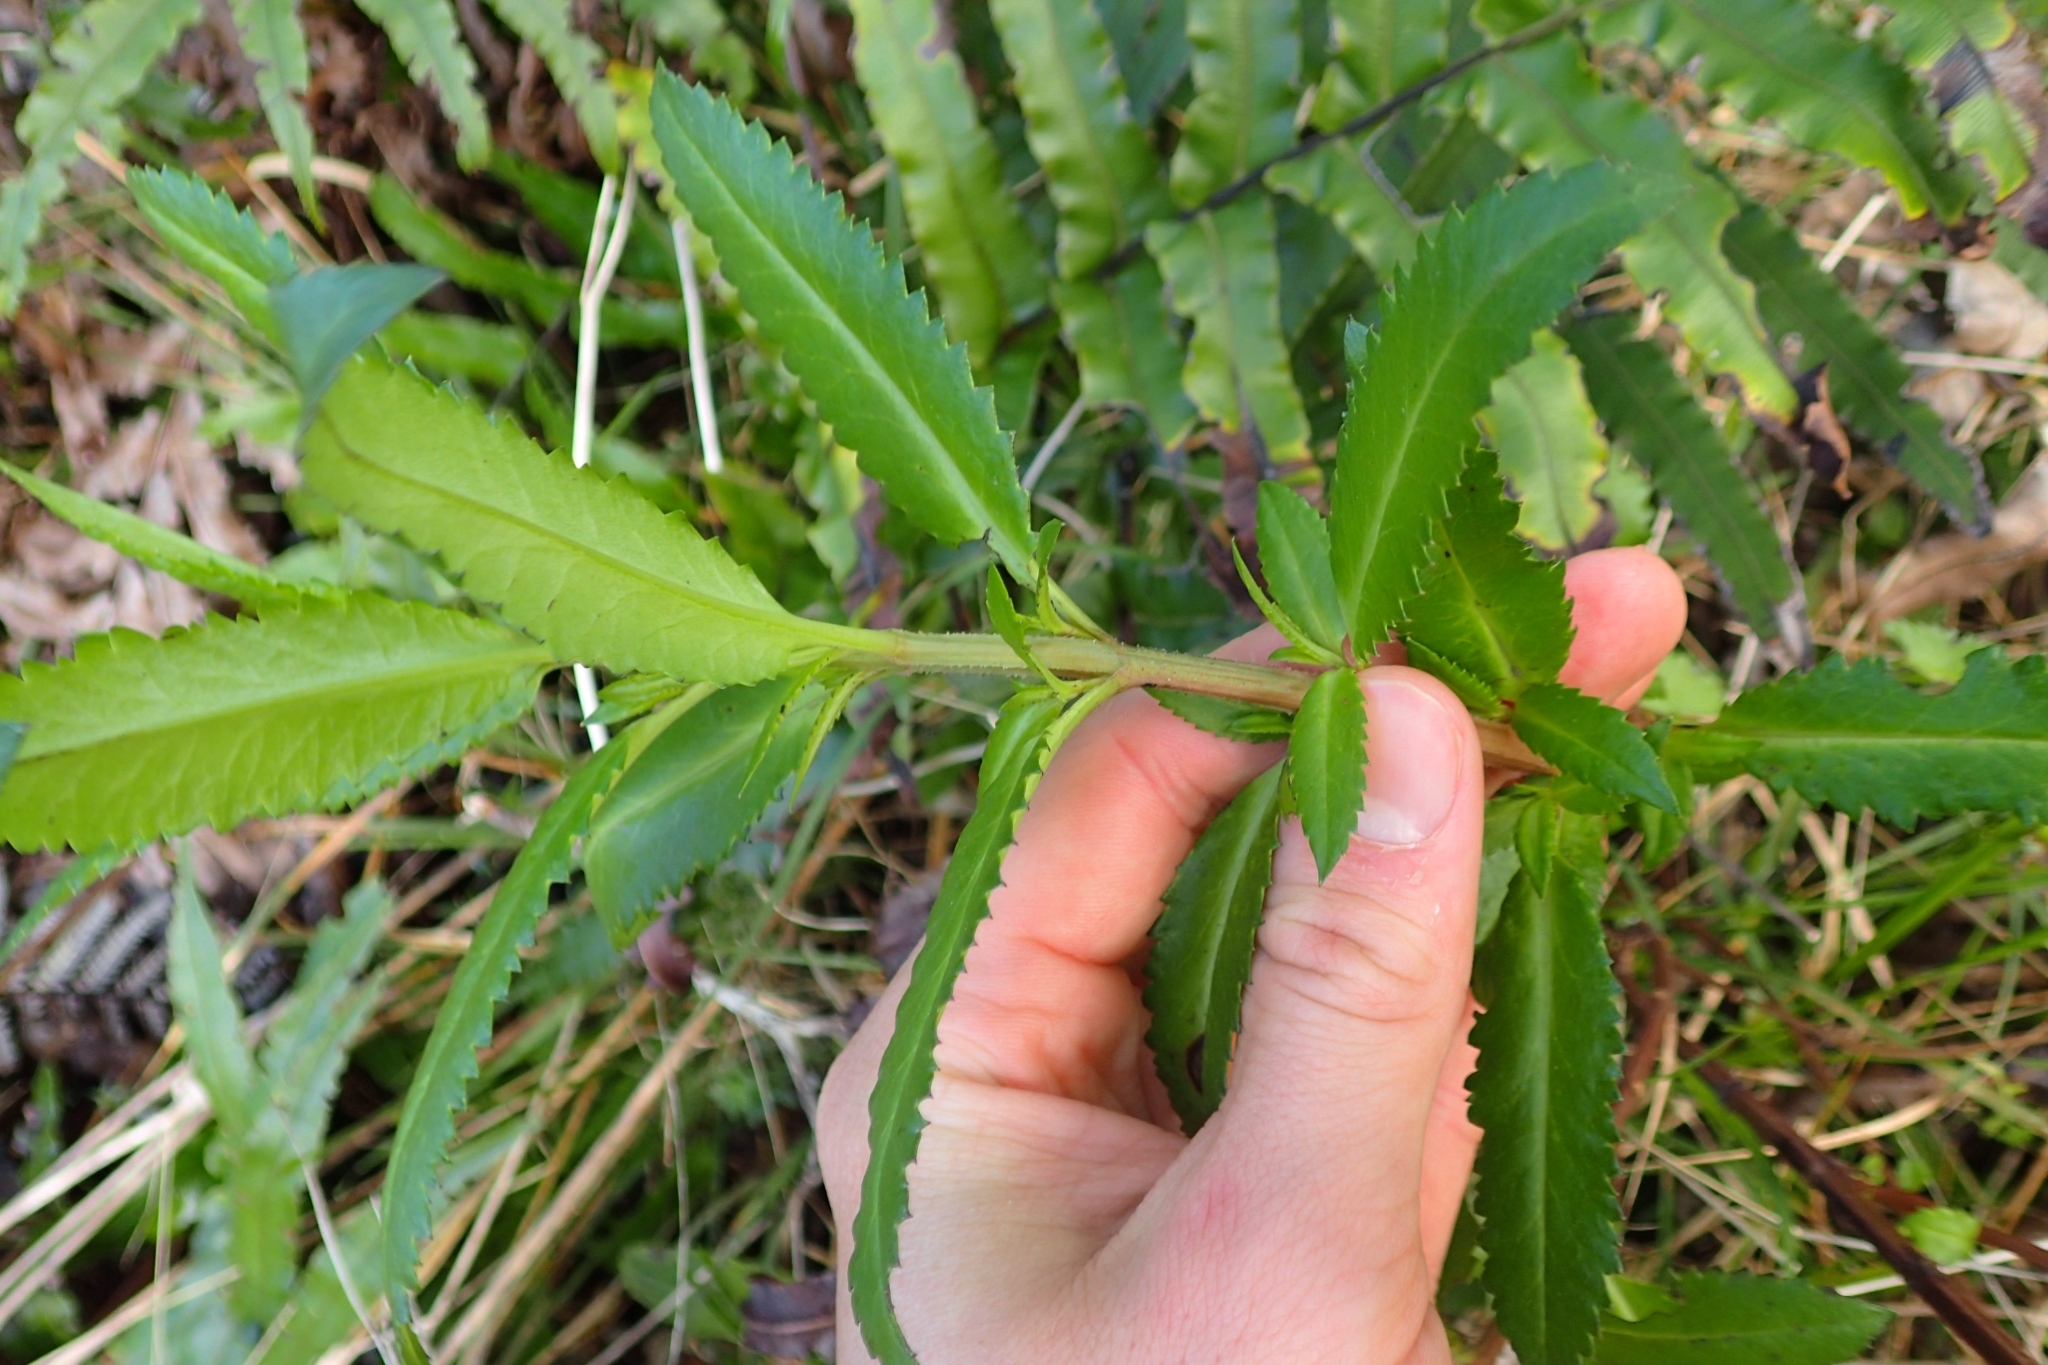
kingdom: Plantae
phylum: Tracheophyta
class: Magnoliopsida
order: Saxifragales
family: Haloragaceae
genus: Haloragis
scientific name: Haloragis erecta
